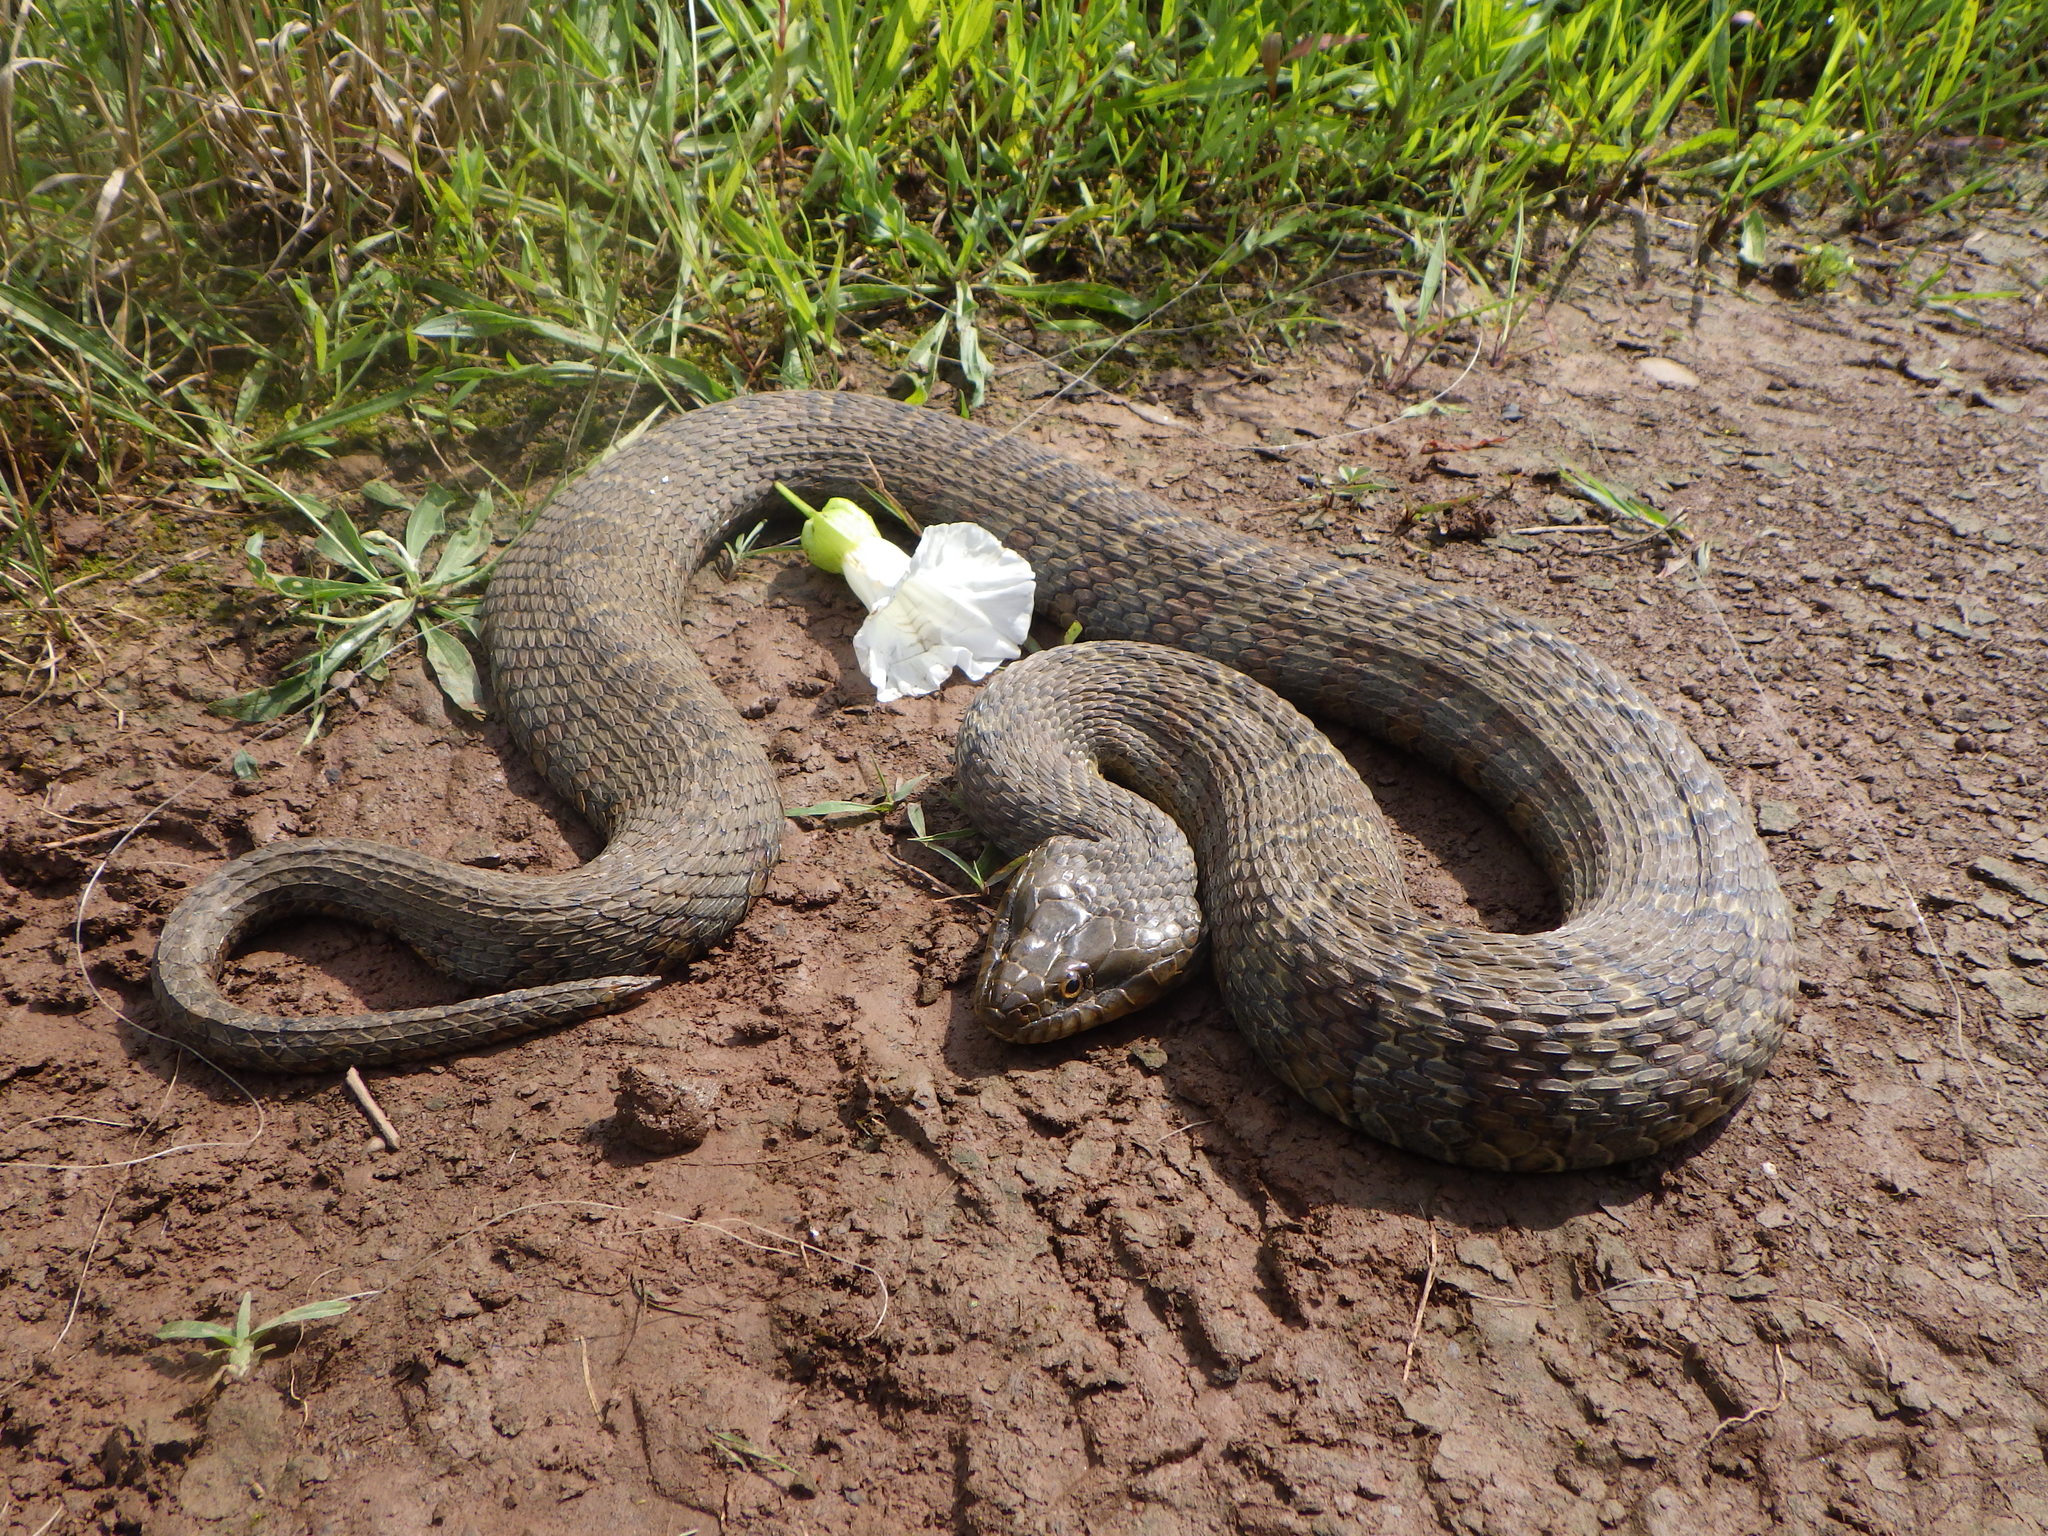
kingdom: Animalia
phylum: Chordata
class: Squamata
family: Colubridae
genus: Nerodia
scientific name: Nerodia sipedon
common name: Northern water snake
